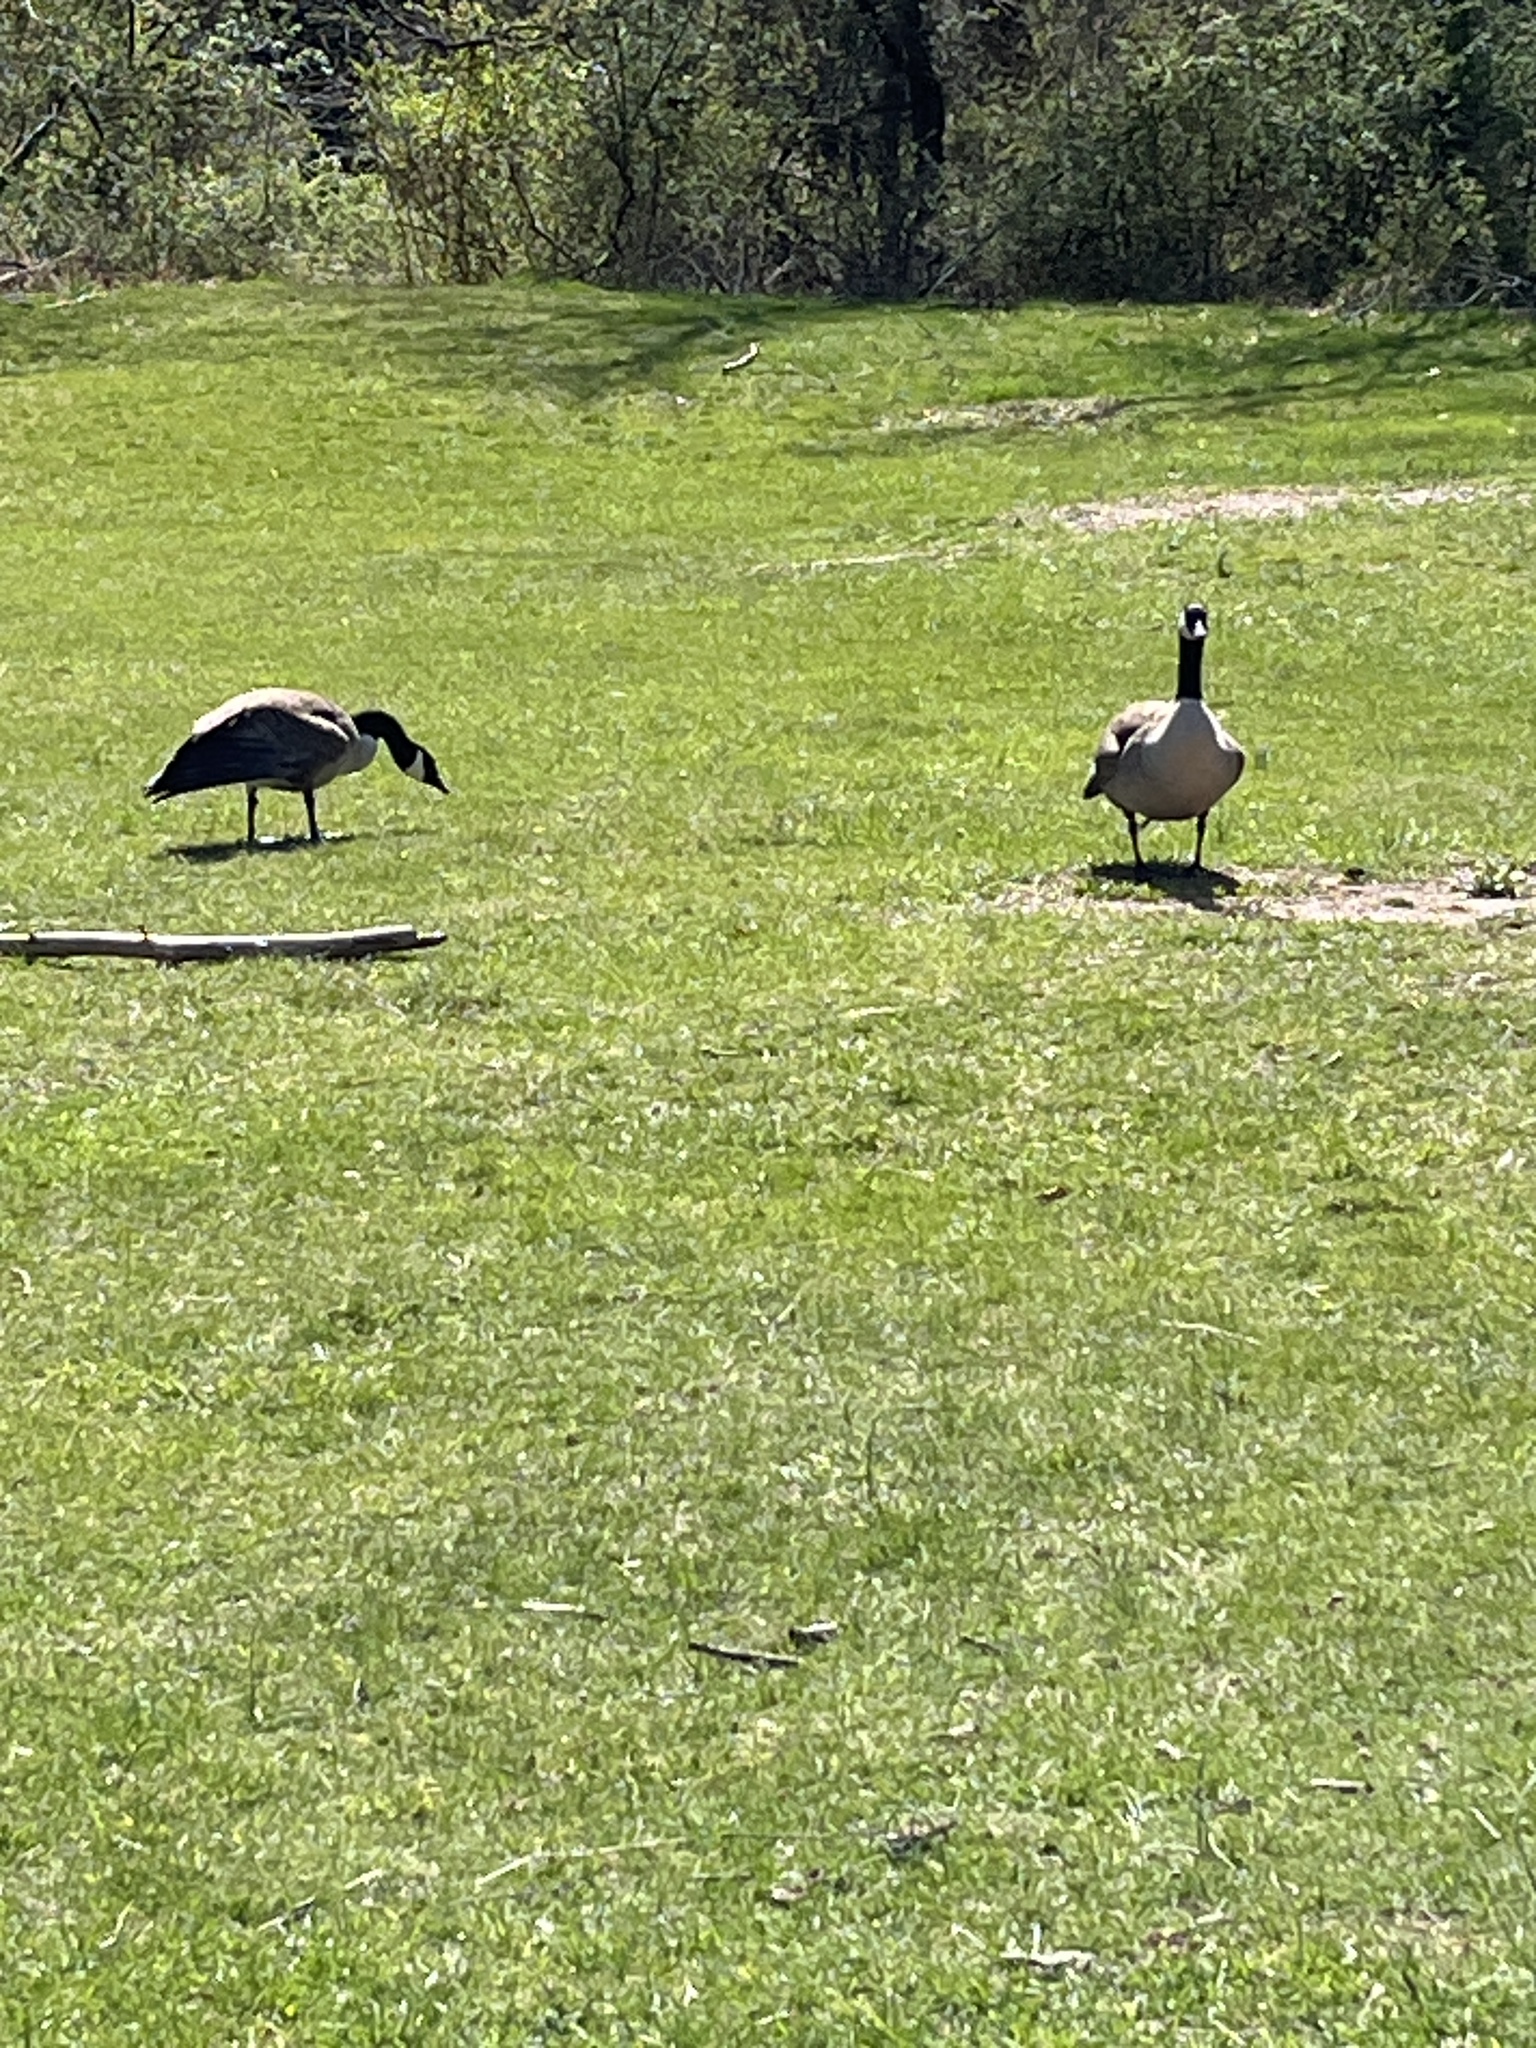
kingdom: Animalia
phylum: Chordata
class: Aves
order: Anseriformes
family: Anatidae
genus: Branta
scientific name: Branta canadensis
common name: Canada goose
